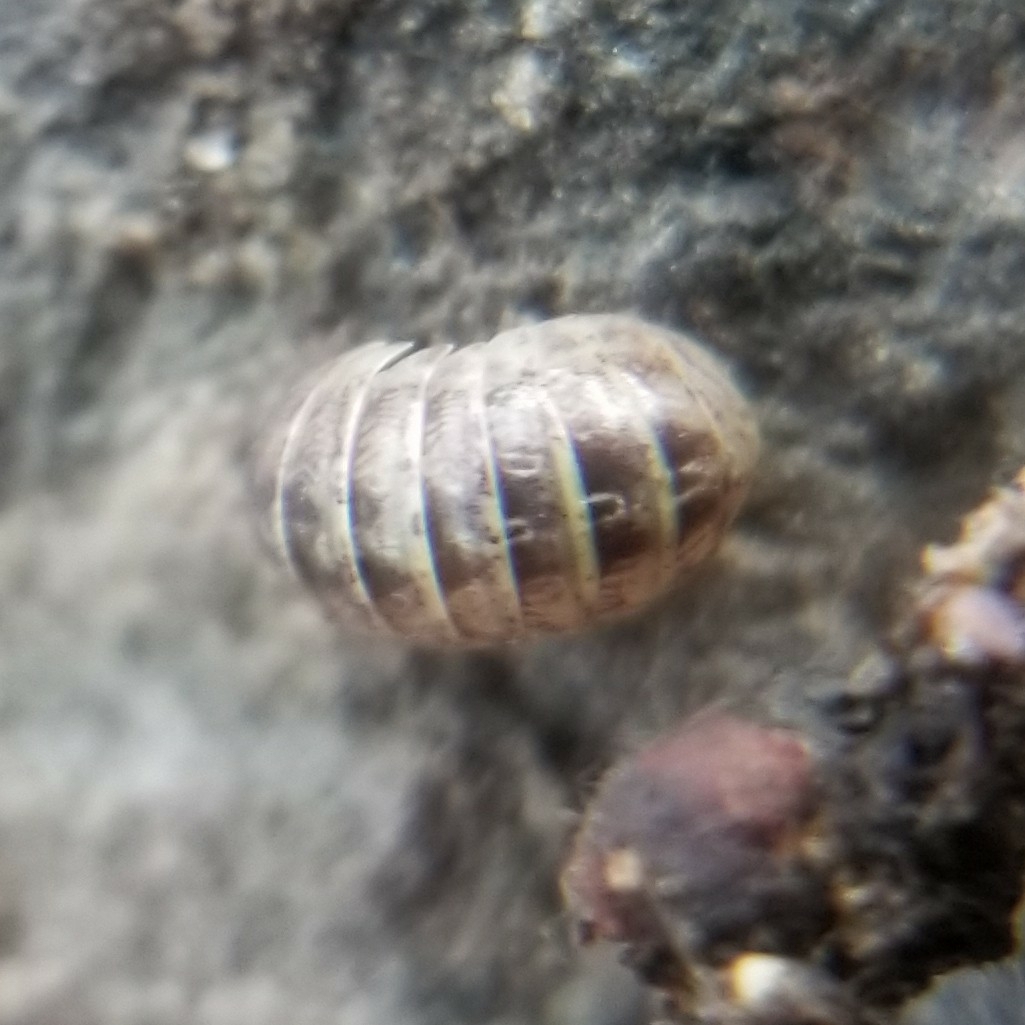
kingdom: Animalia
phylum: Arthropoda
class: Malacostraca
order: Isopoda
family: Armadillidiidae
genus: Armadillidium
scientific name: Armadillidium vulgare
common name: Common pill woodlouse
